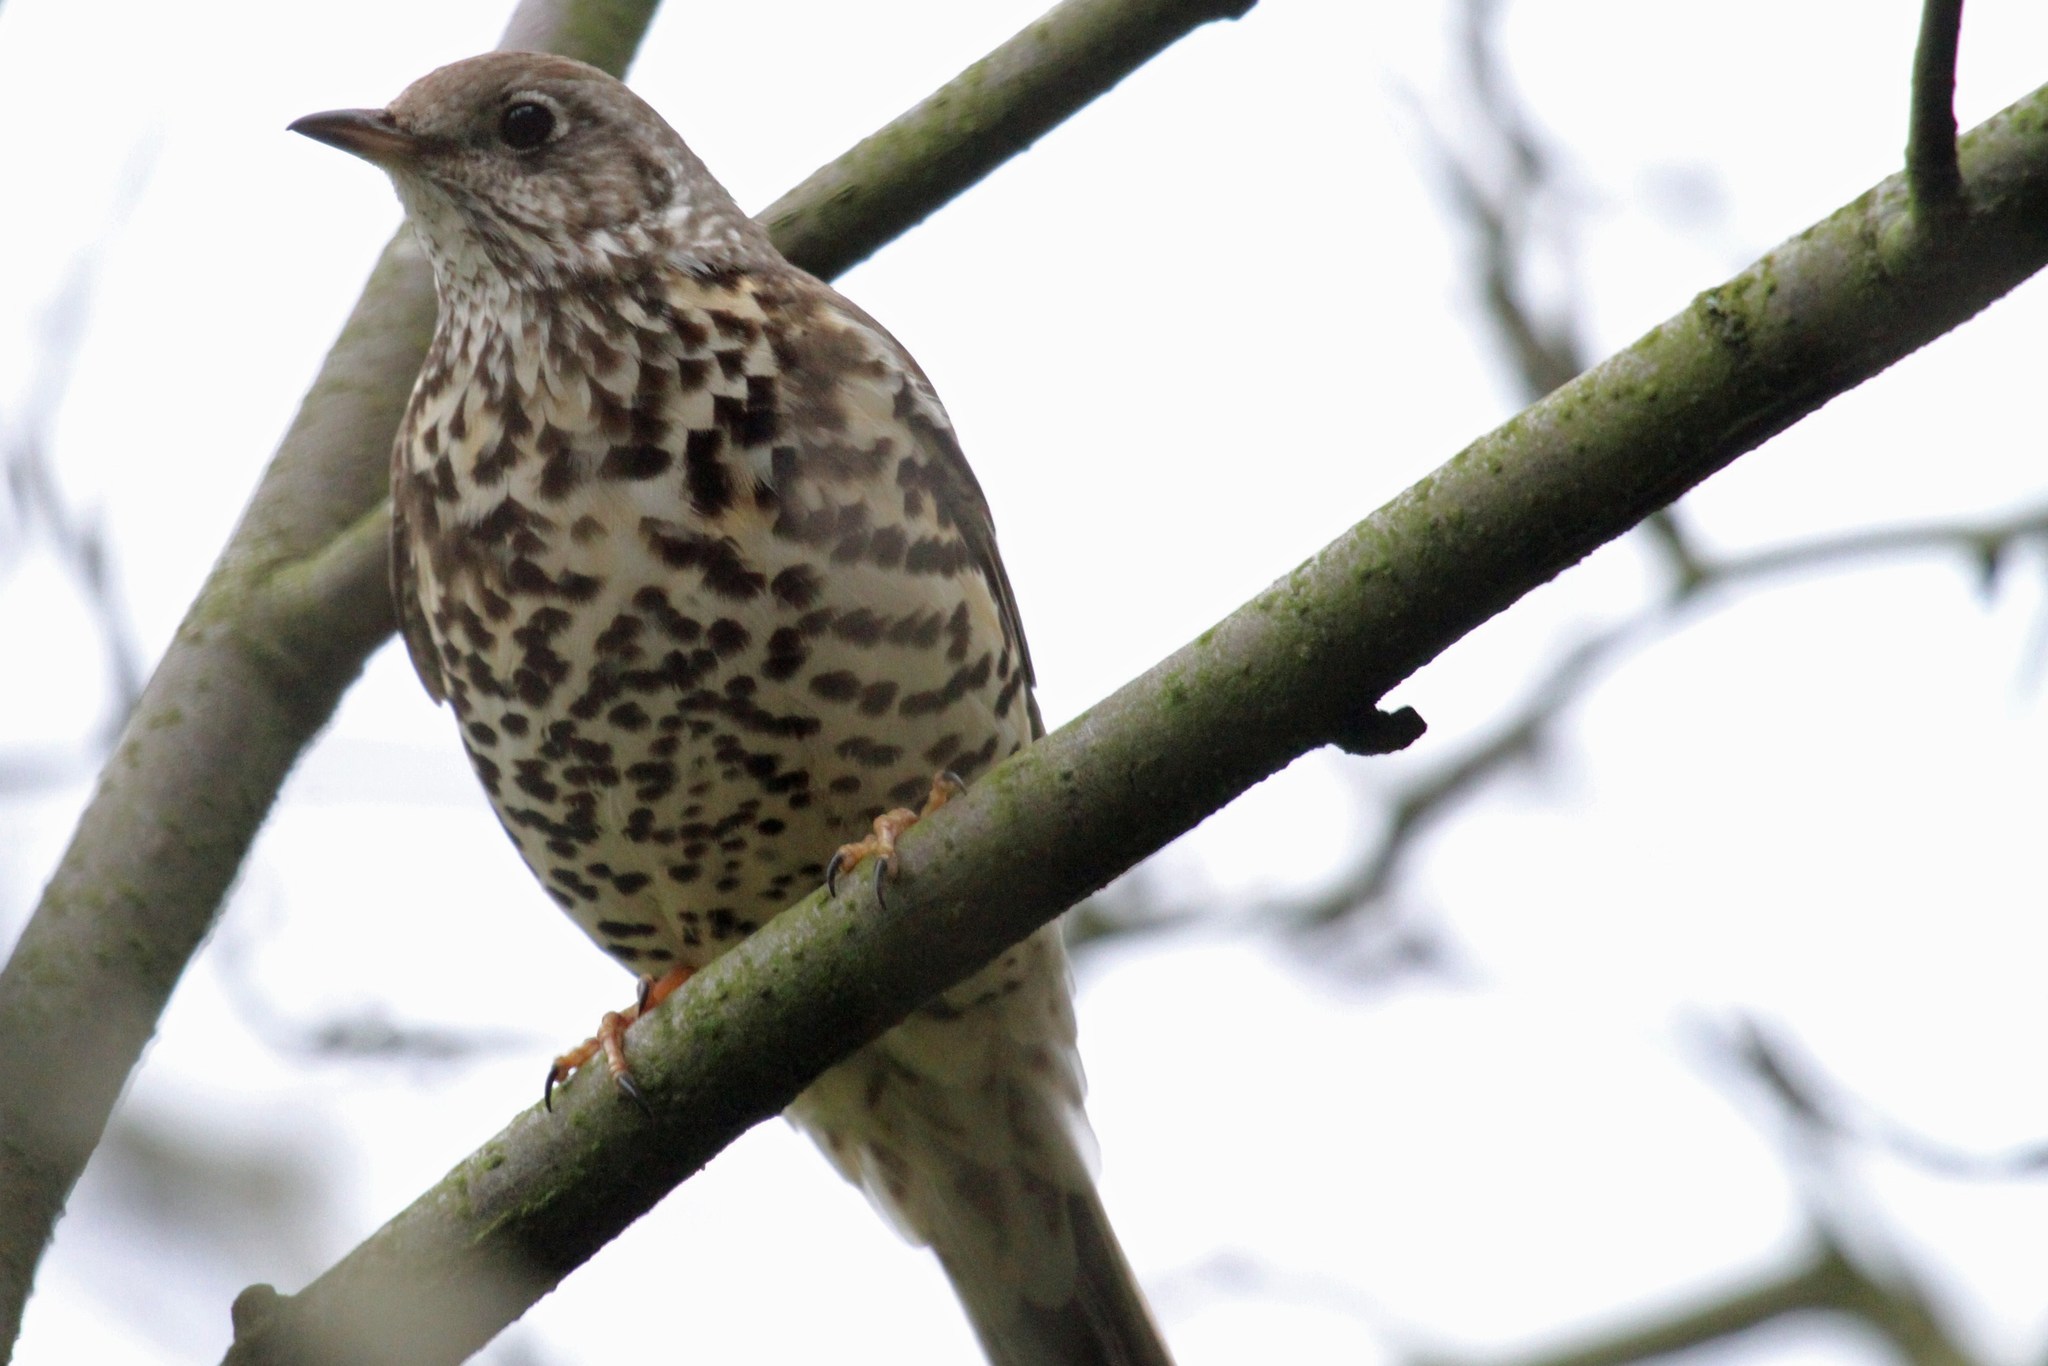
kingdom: Animalia
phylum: Chordata
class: Aves
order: Passeriformes
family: Turdidae
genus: Turdus
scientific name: Turdus viscivorus
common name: Mistle thrush
